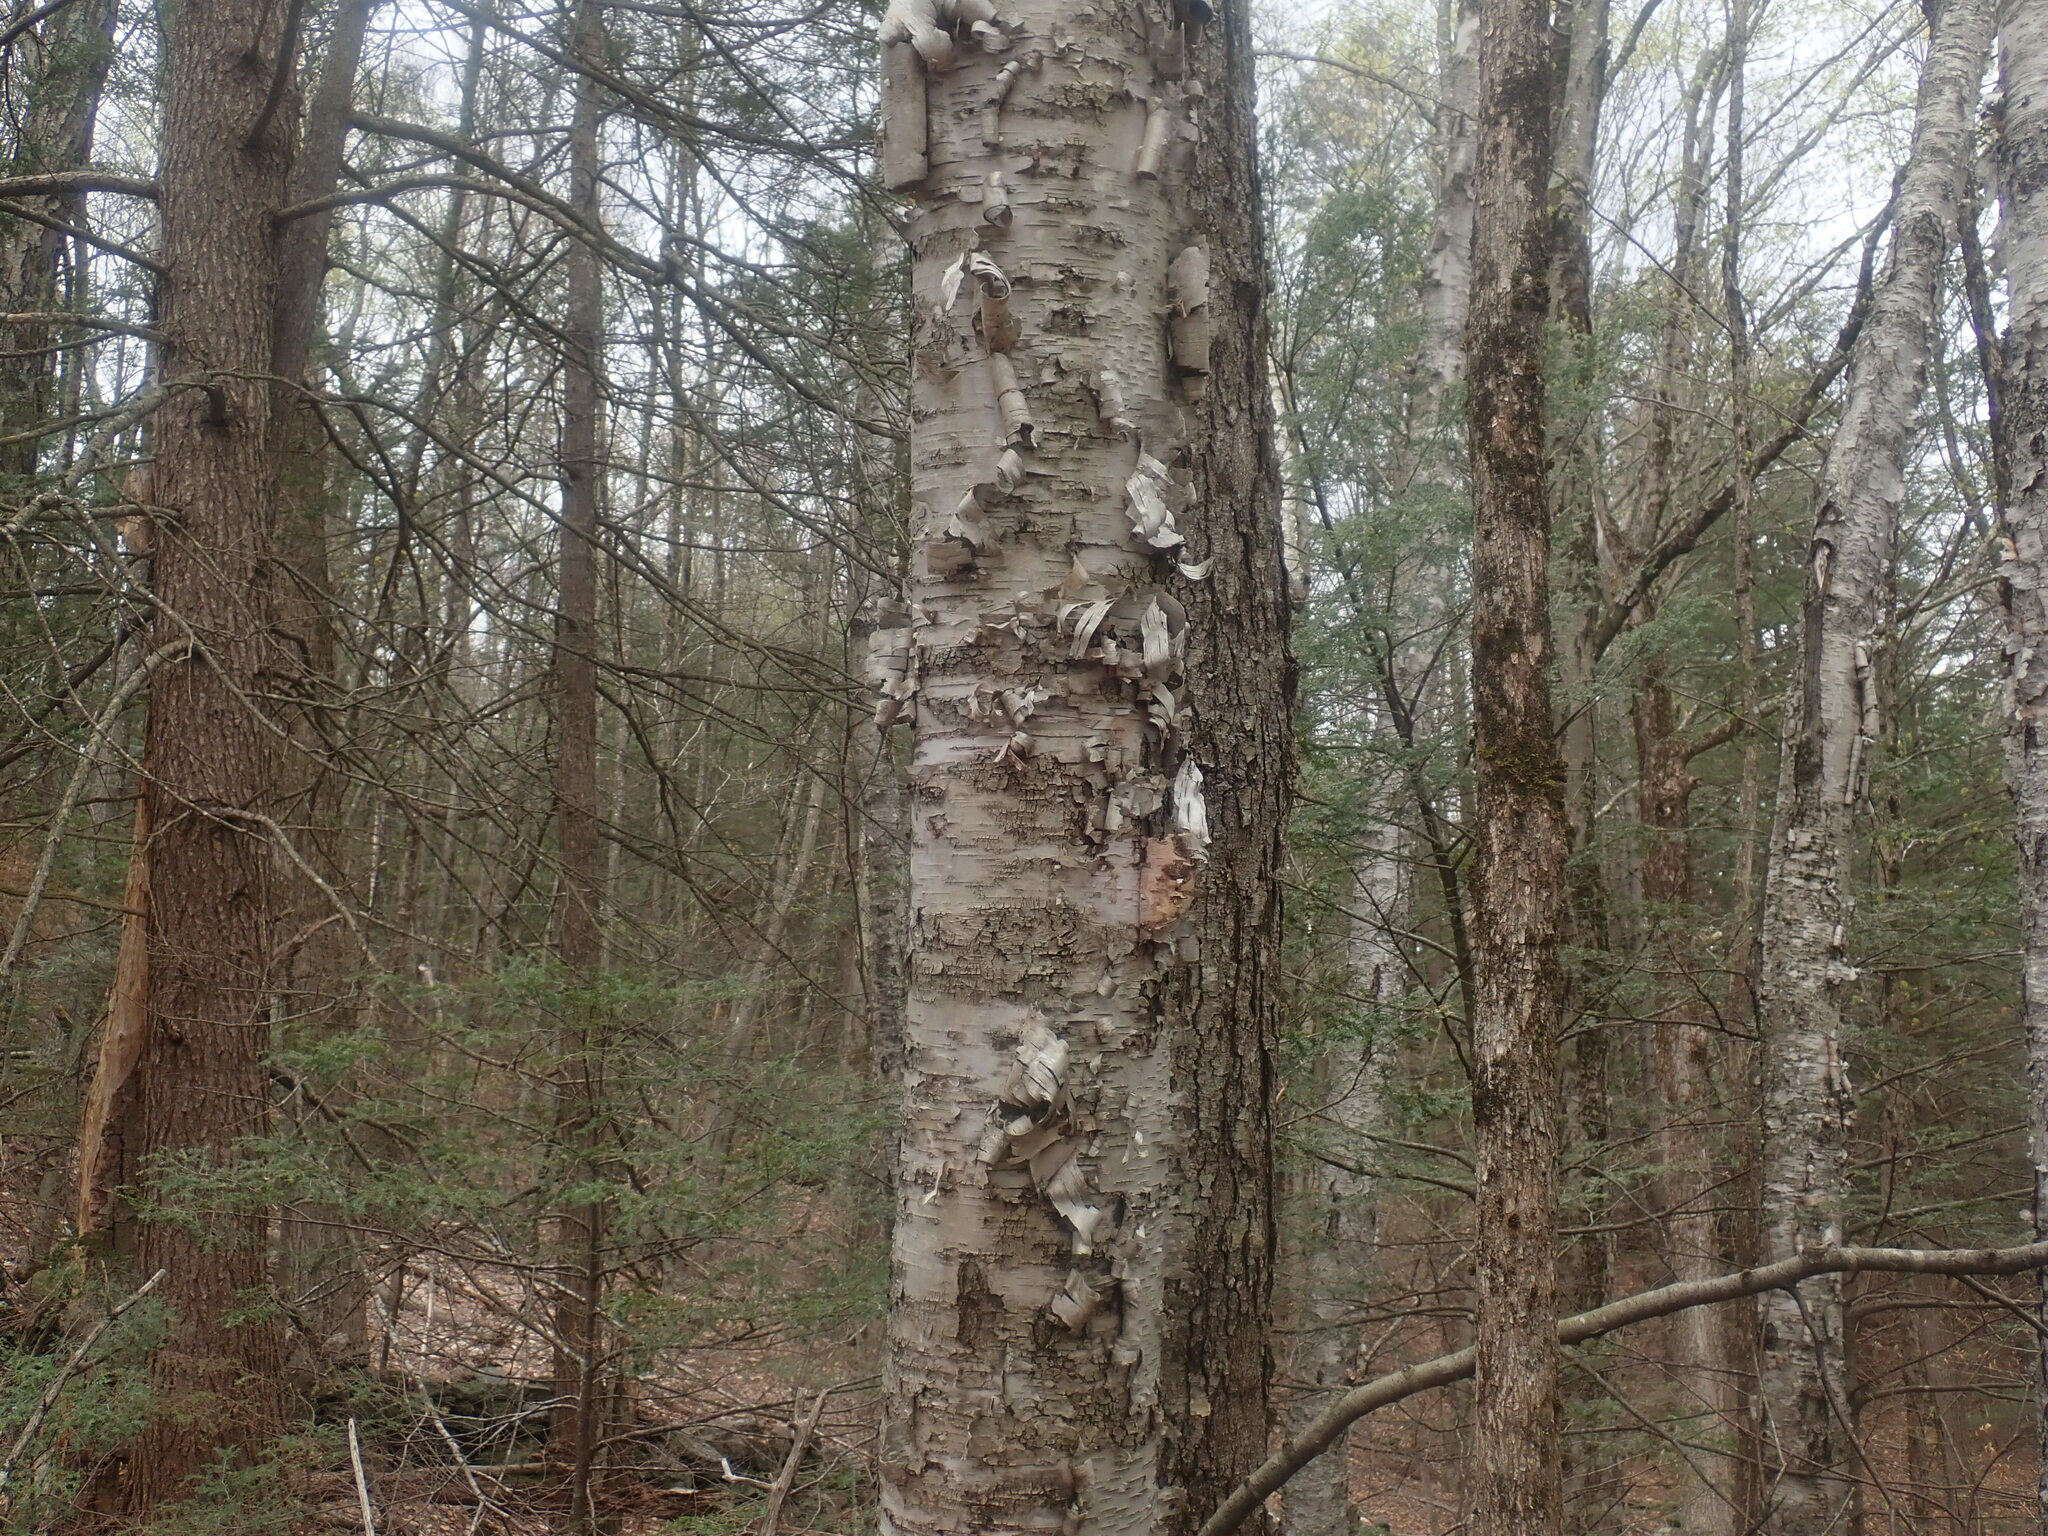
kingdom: Plantae
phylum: Tracheophyta
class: Magnoliopsida
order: Fagales
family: Betulaceae
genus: Betula
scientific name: Betula alleghaniensis
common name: Yellow birch
